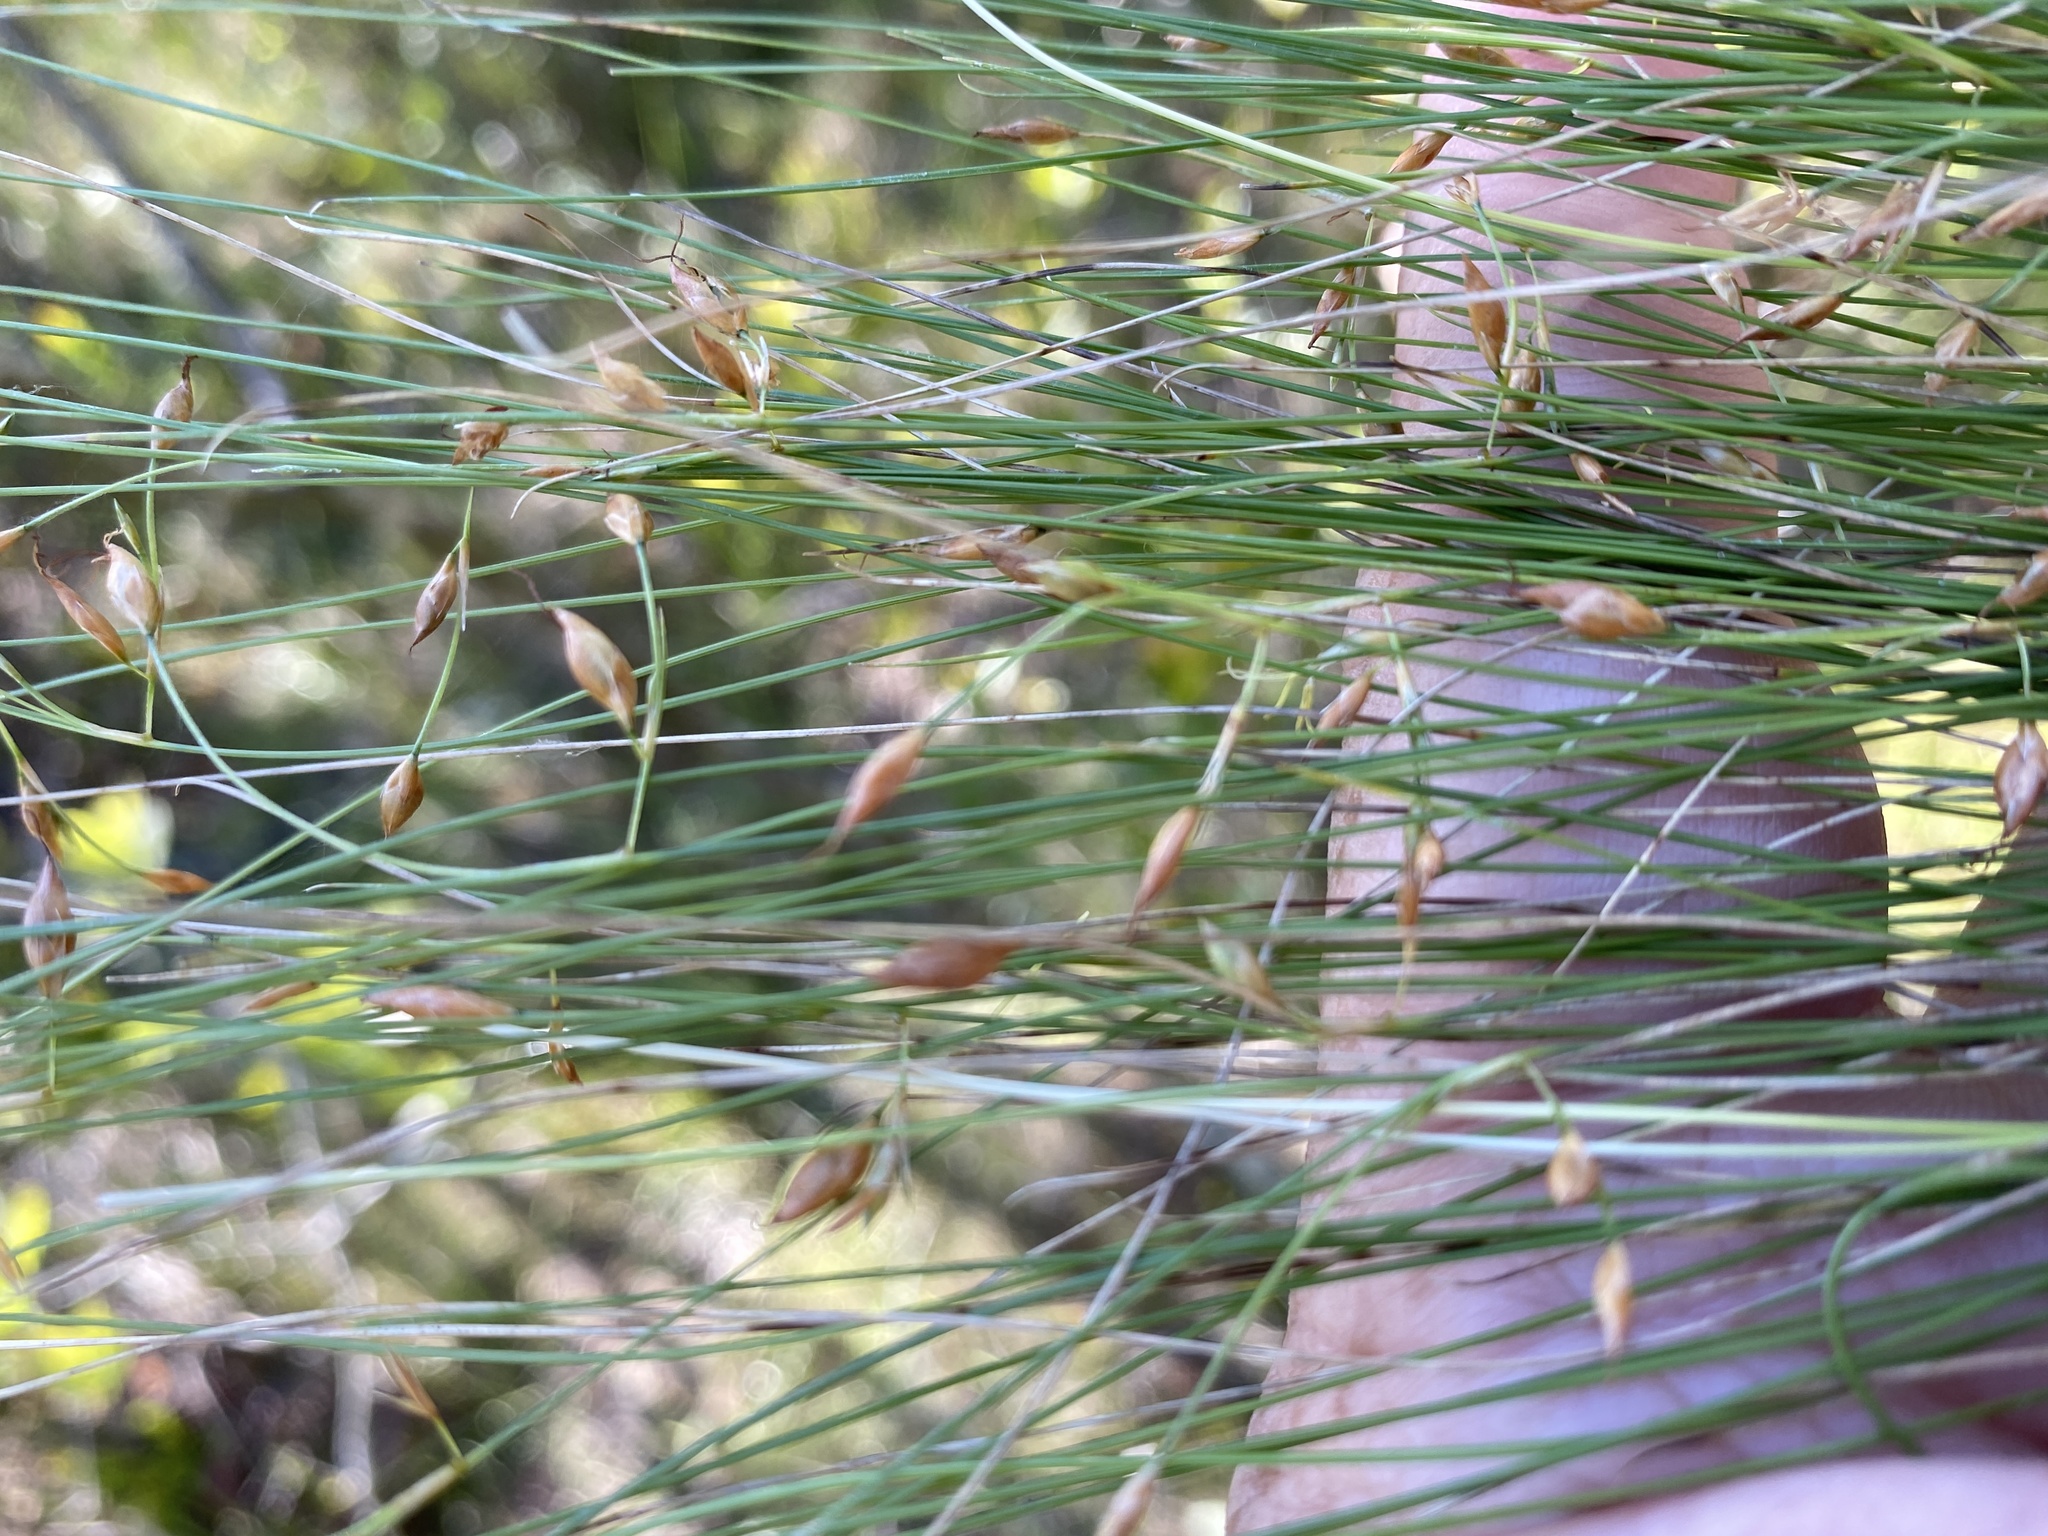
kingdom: Plantae
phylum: Tracheophyta
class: Liliopsida
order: Poales
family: Cyperaceae
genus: Rhynchospora
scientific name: Rhynchospora oligantha
